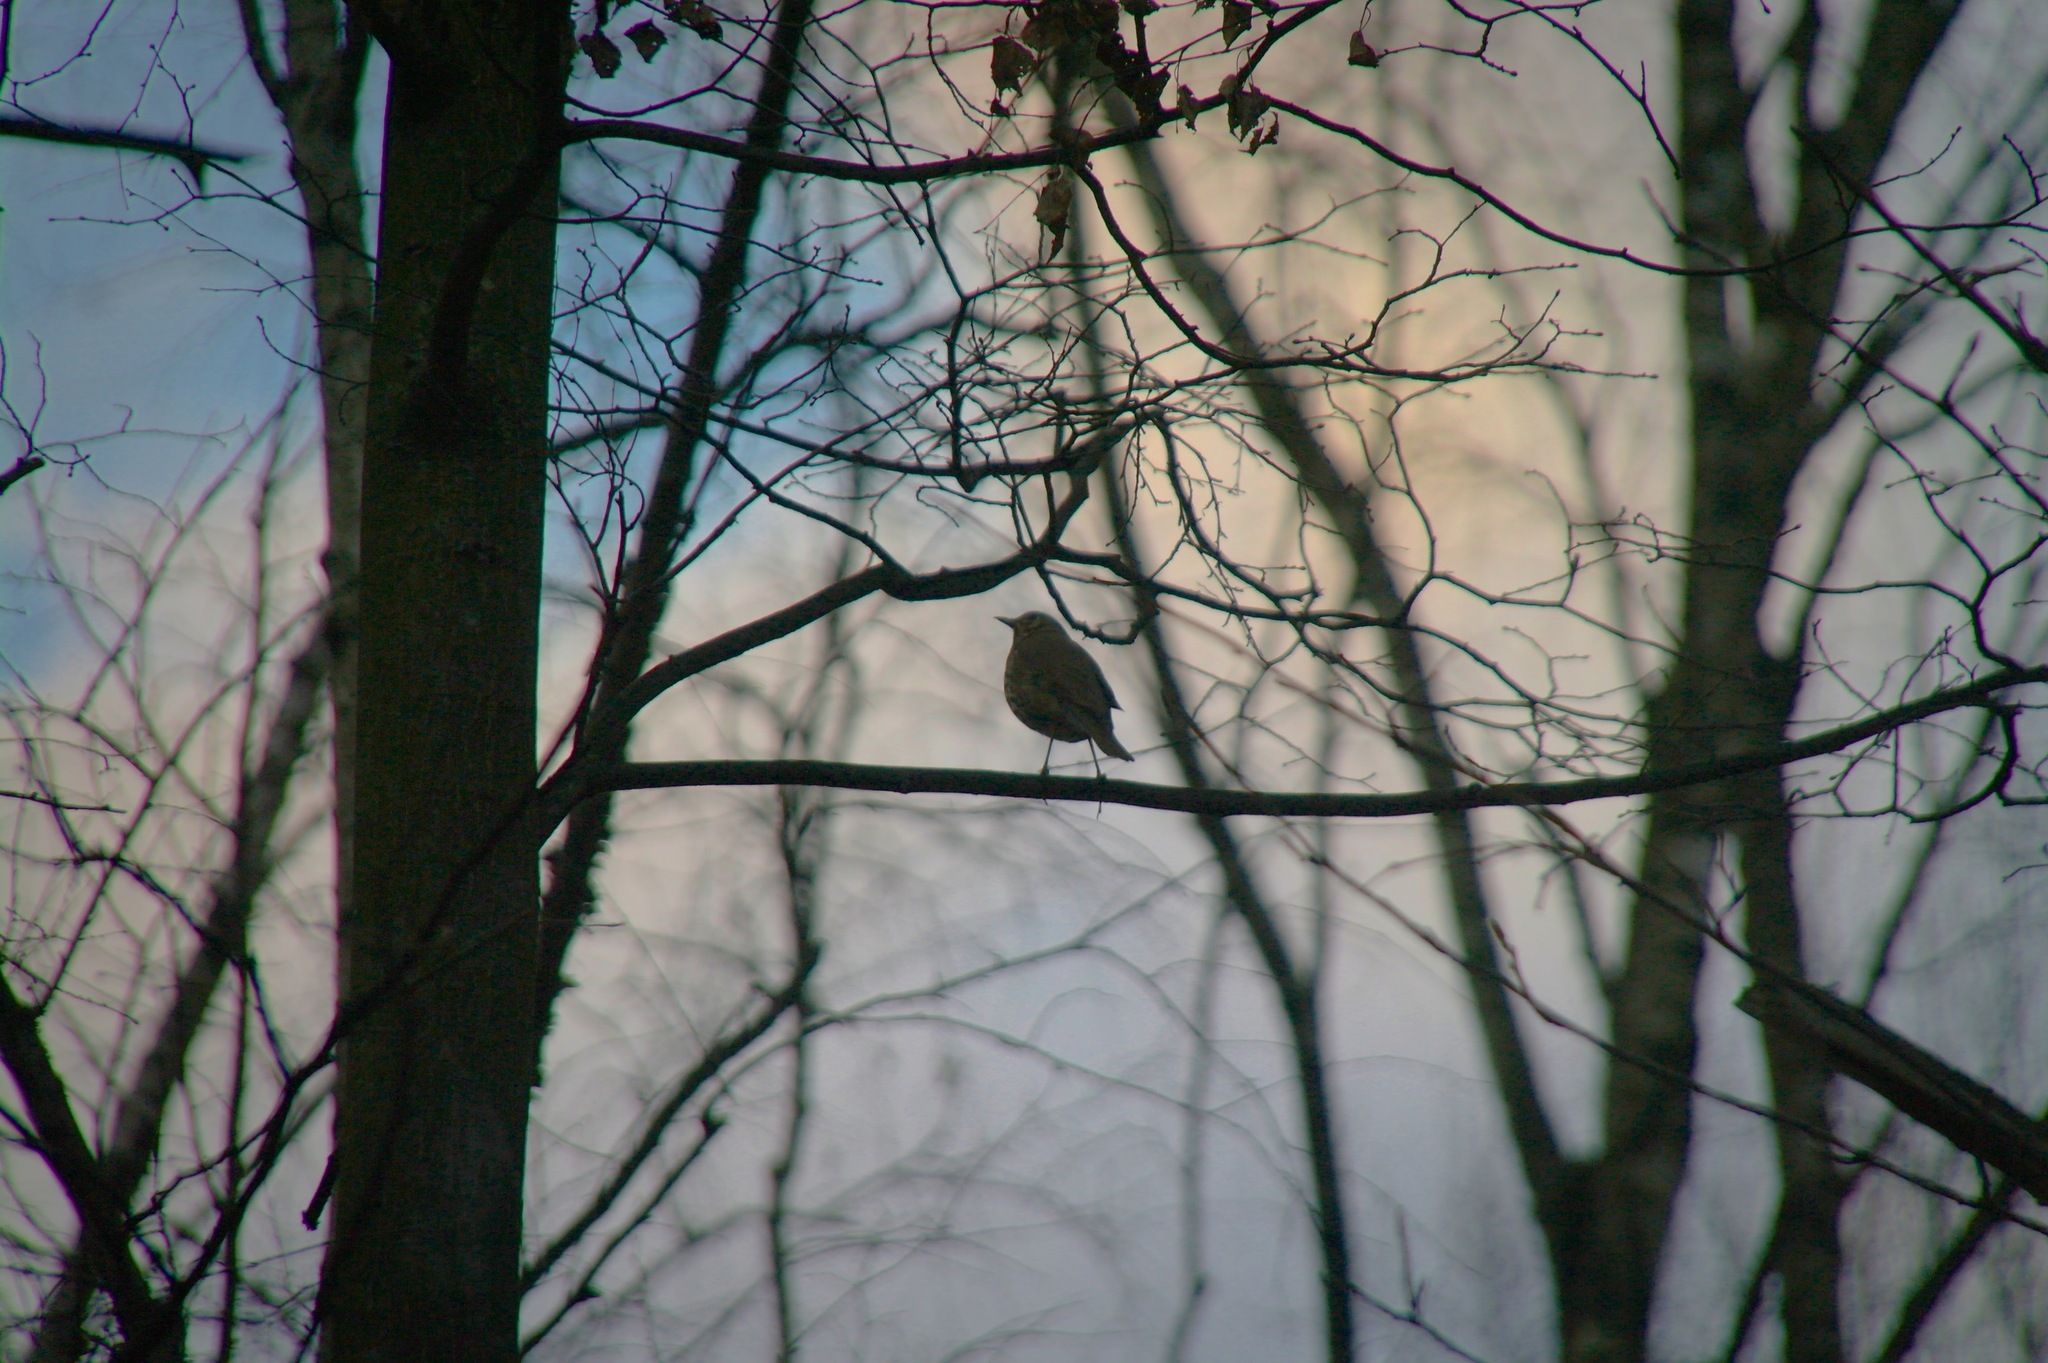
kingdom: Animalia
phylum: Chordata
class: Aves
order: Passeriformes
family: Turdidae
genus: Turdus
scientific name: Turdus philomelos
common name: Song thrush
